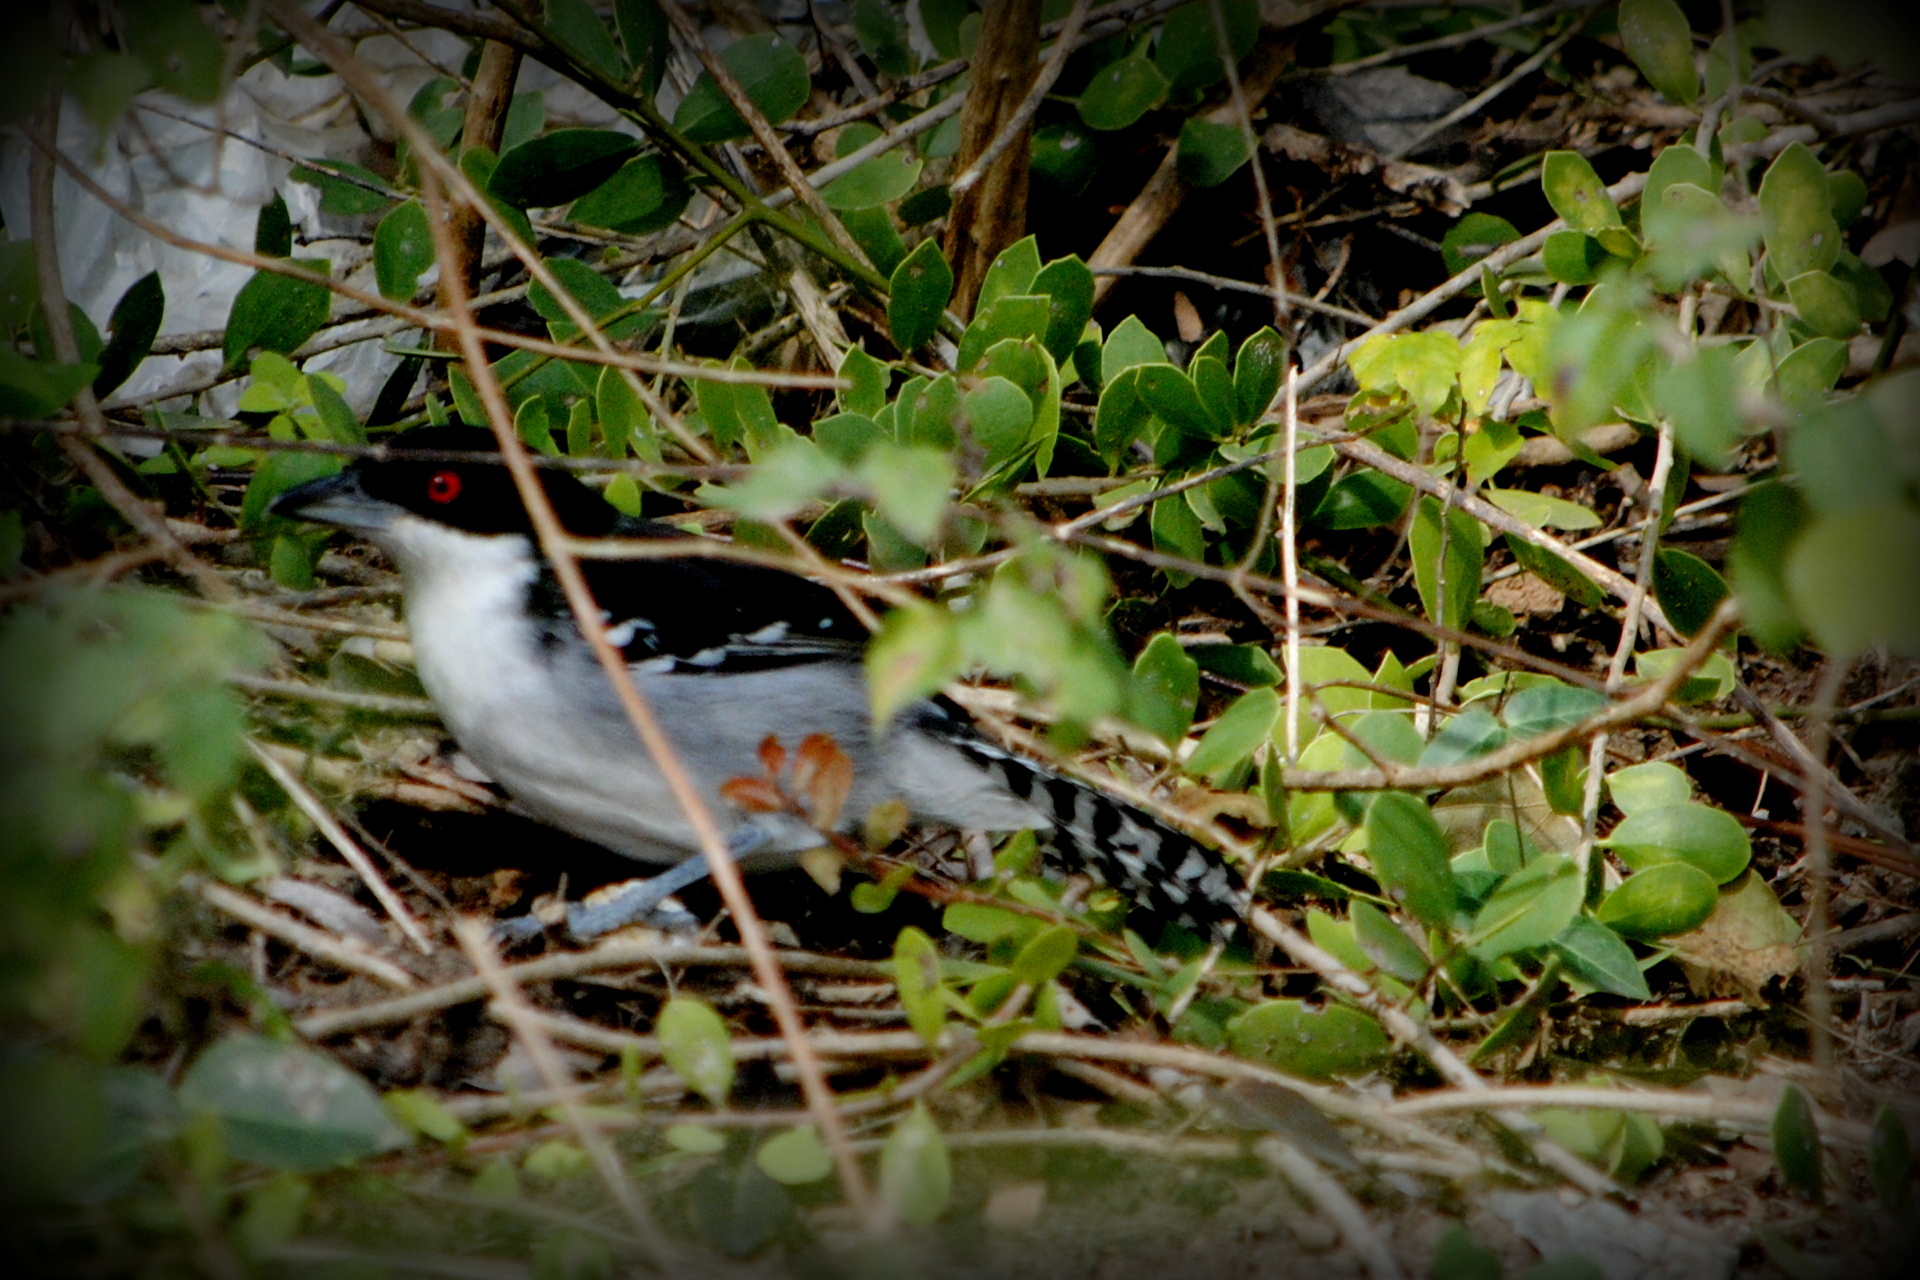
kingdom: Animalia
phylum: Chordata
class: Aves
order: Passeriformes
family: Thamnophilidae
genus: Taraba
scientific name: Taraba major
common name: Great antshrike
